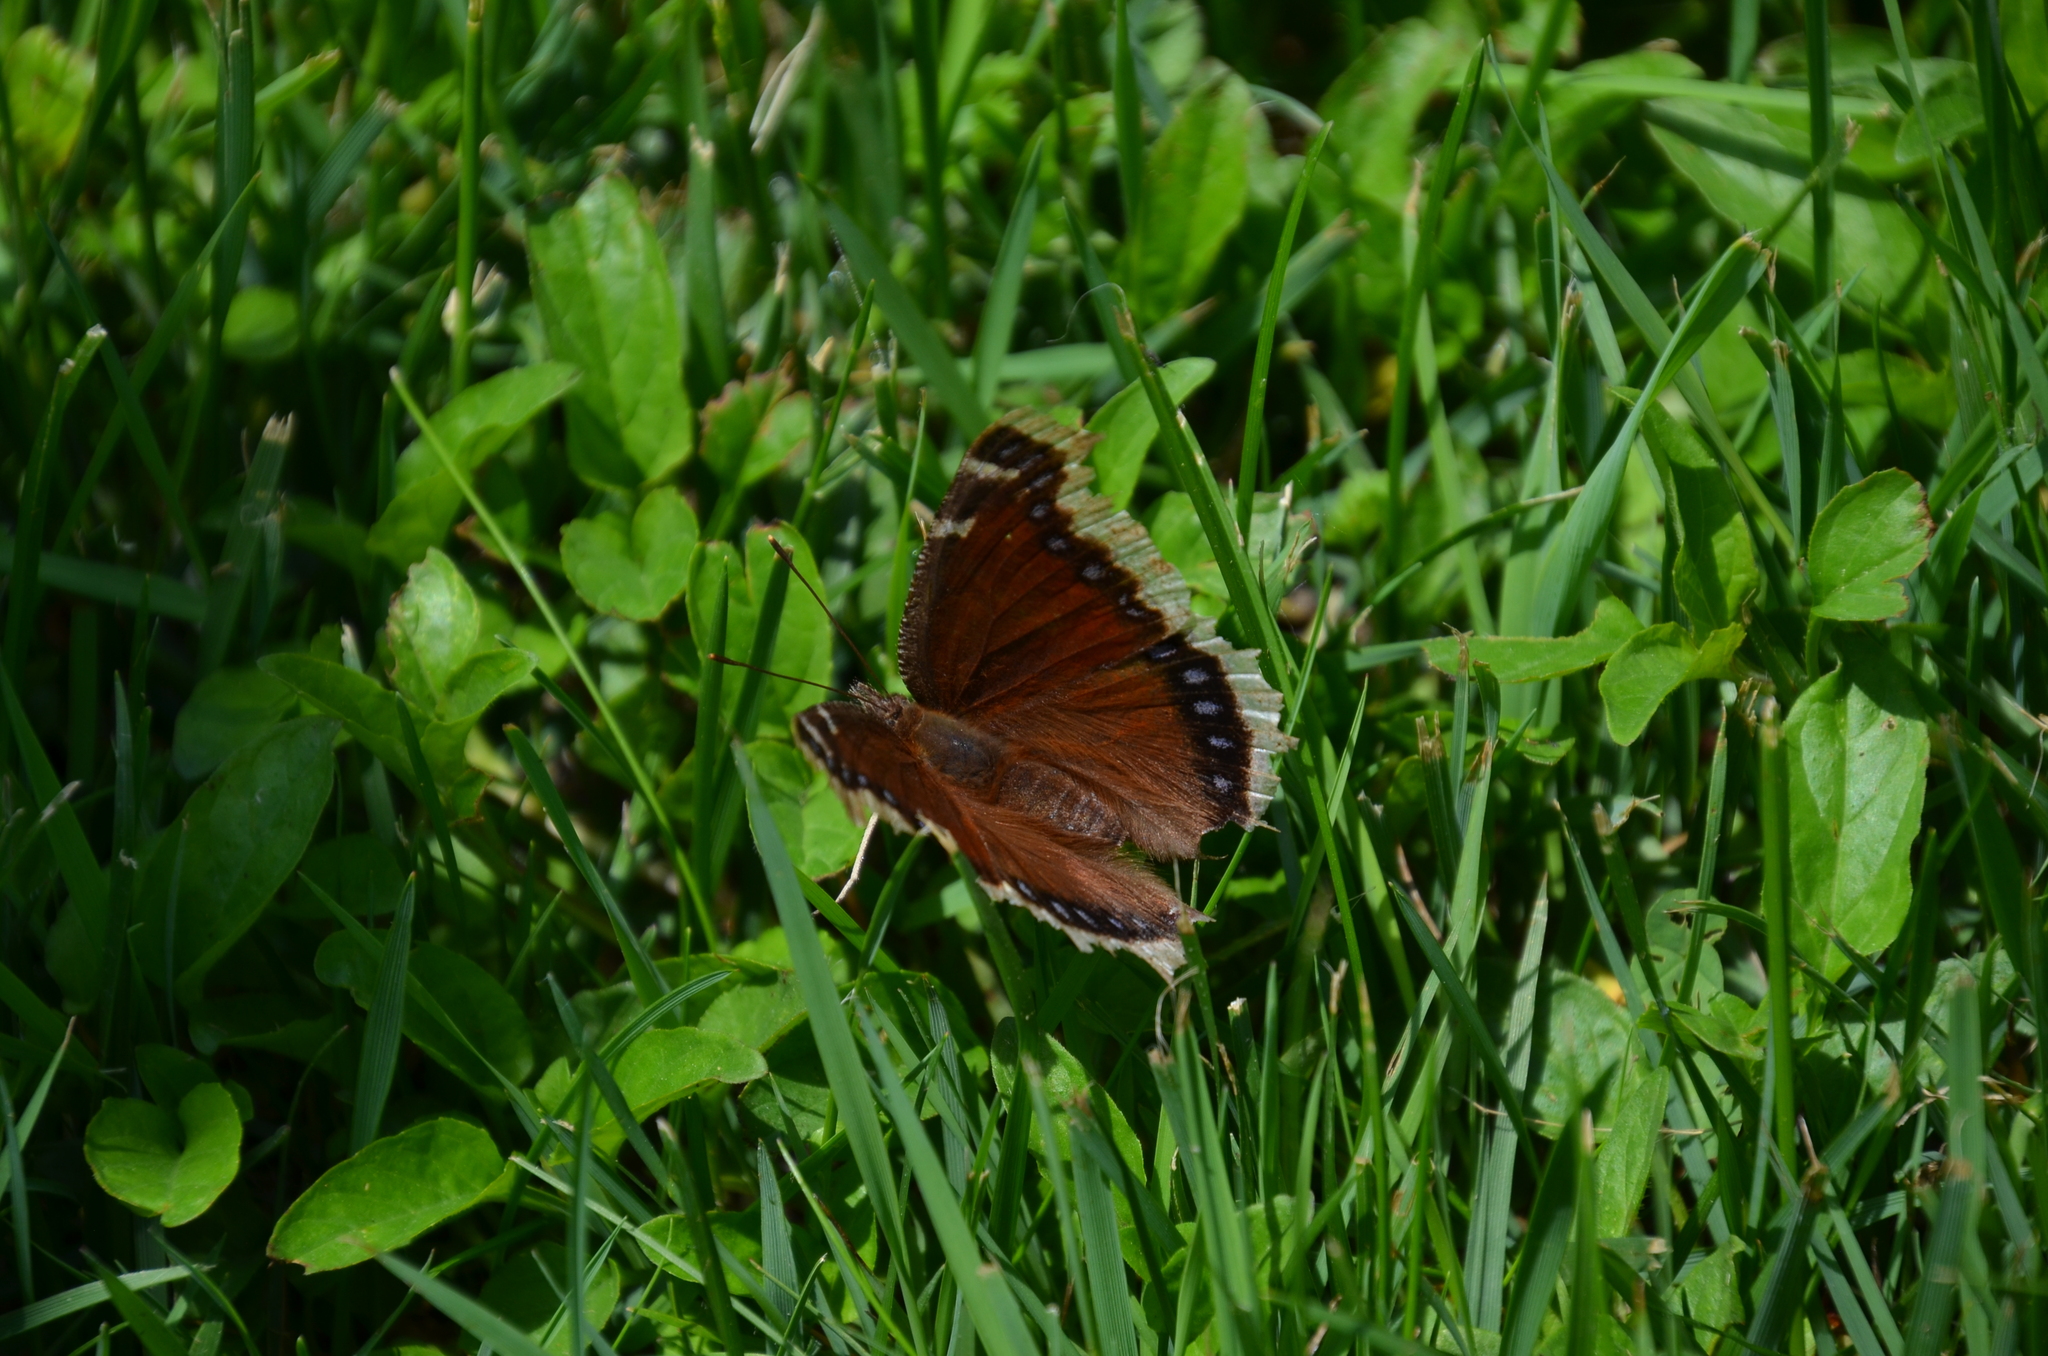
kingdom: Animalia
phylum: Arthropoda
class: Insecta
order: Lepidoptera
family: Nymphalidae
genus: Nymphalis
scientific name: Nymphalis antiopa
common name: Camberwell beauty
